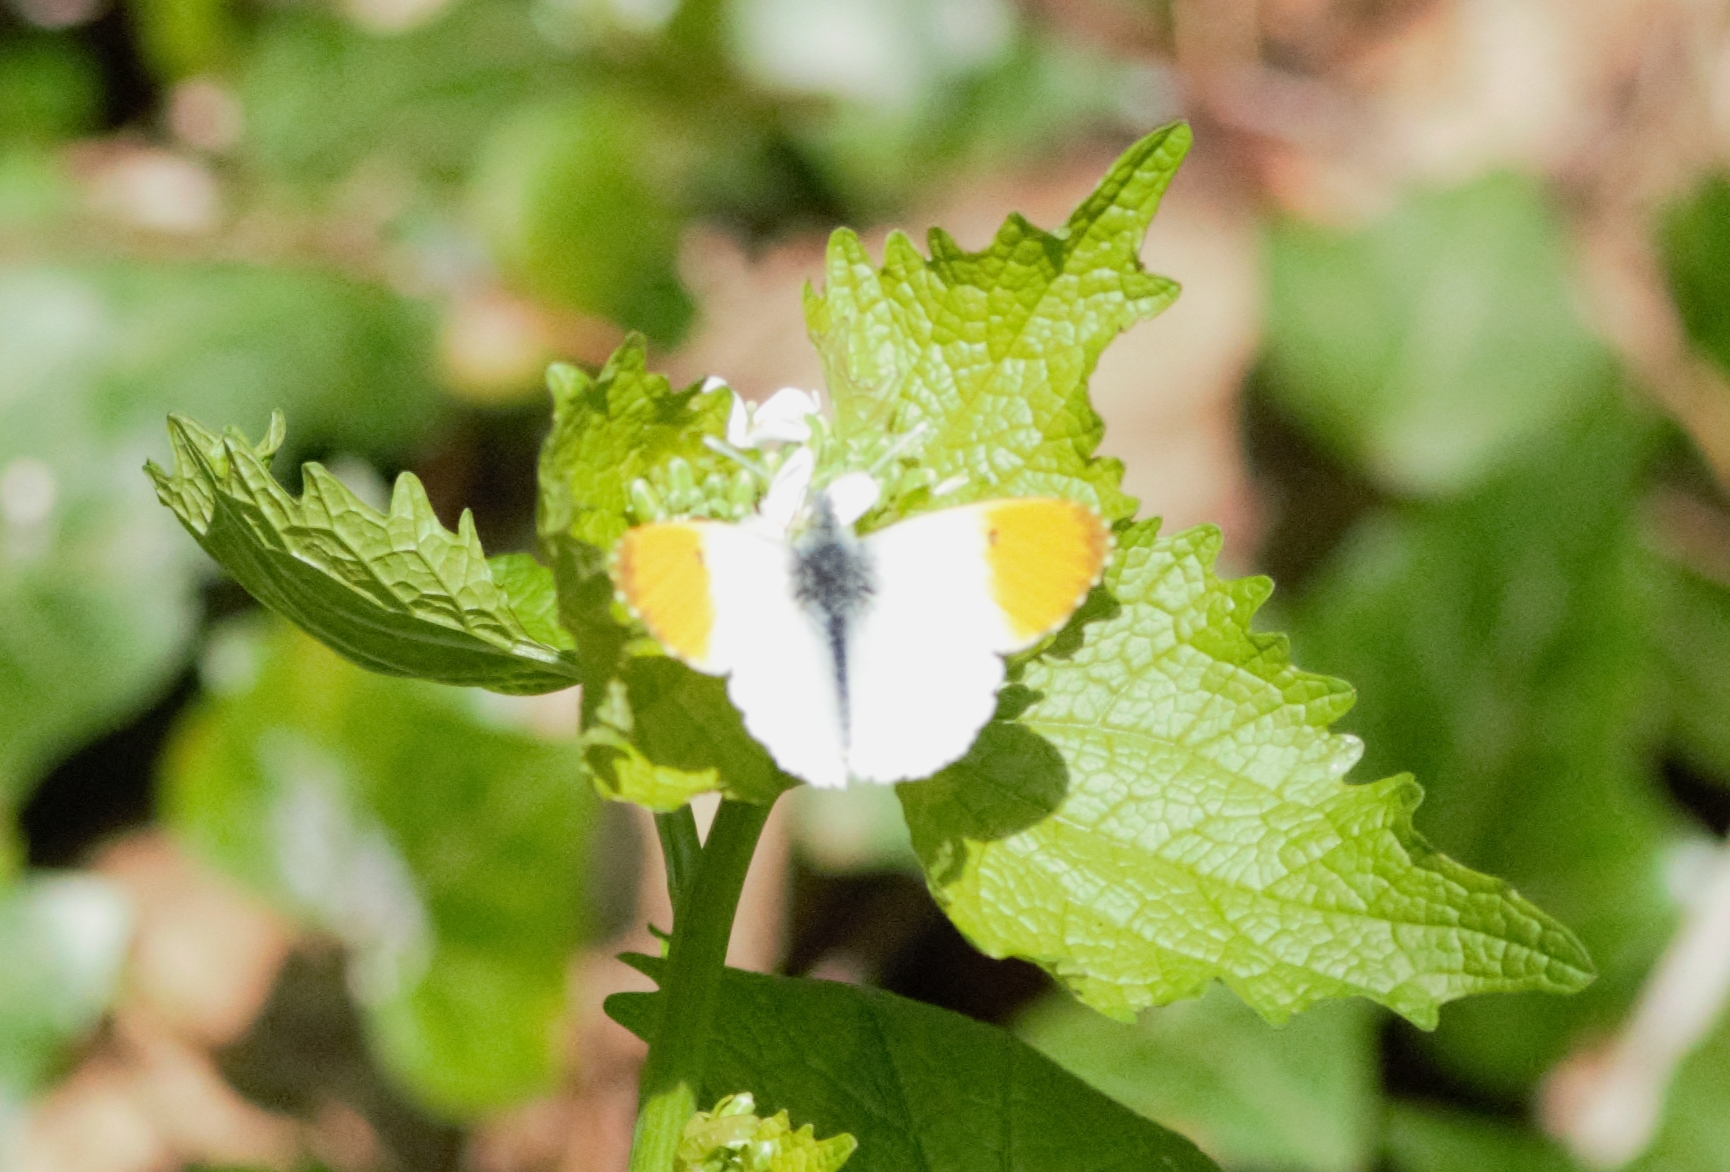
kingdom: Animalia
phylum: Arthropoda
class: Insecta
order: Lepidoptera
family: Pieridae
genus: Anthocharis
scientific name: Anthocharis cardamines
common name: Orange-tip
